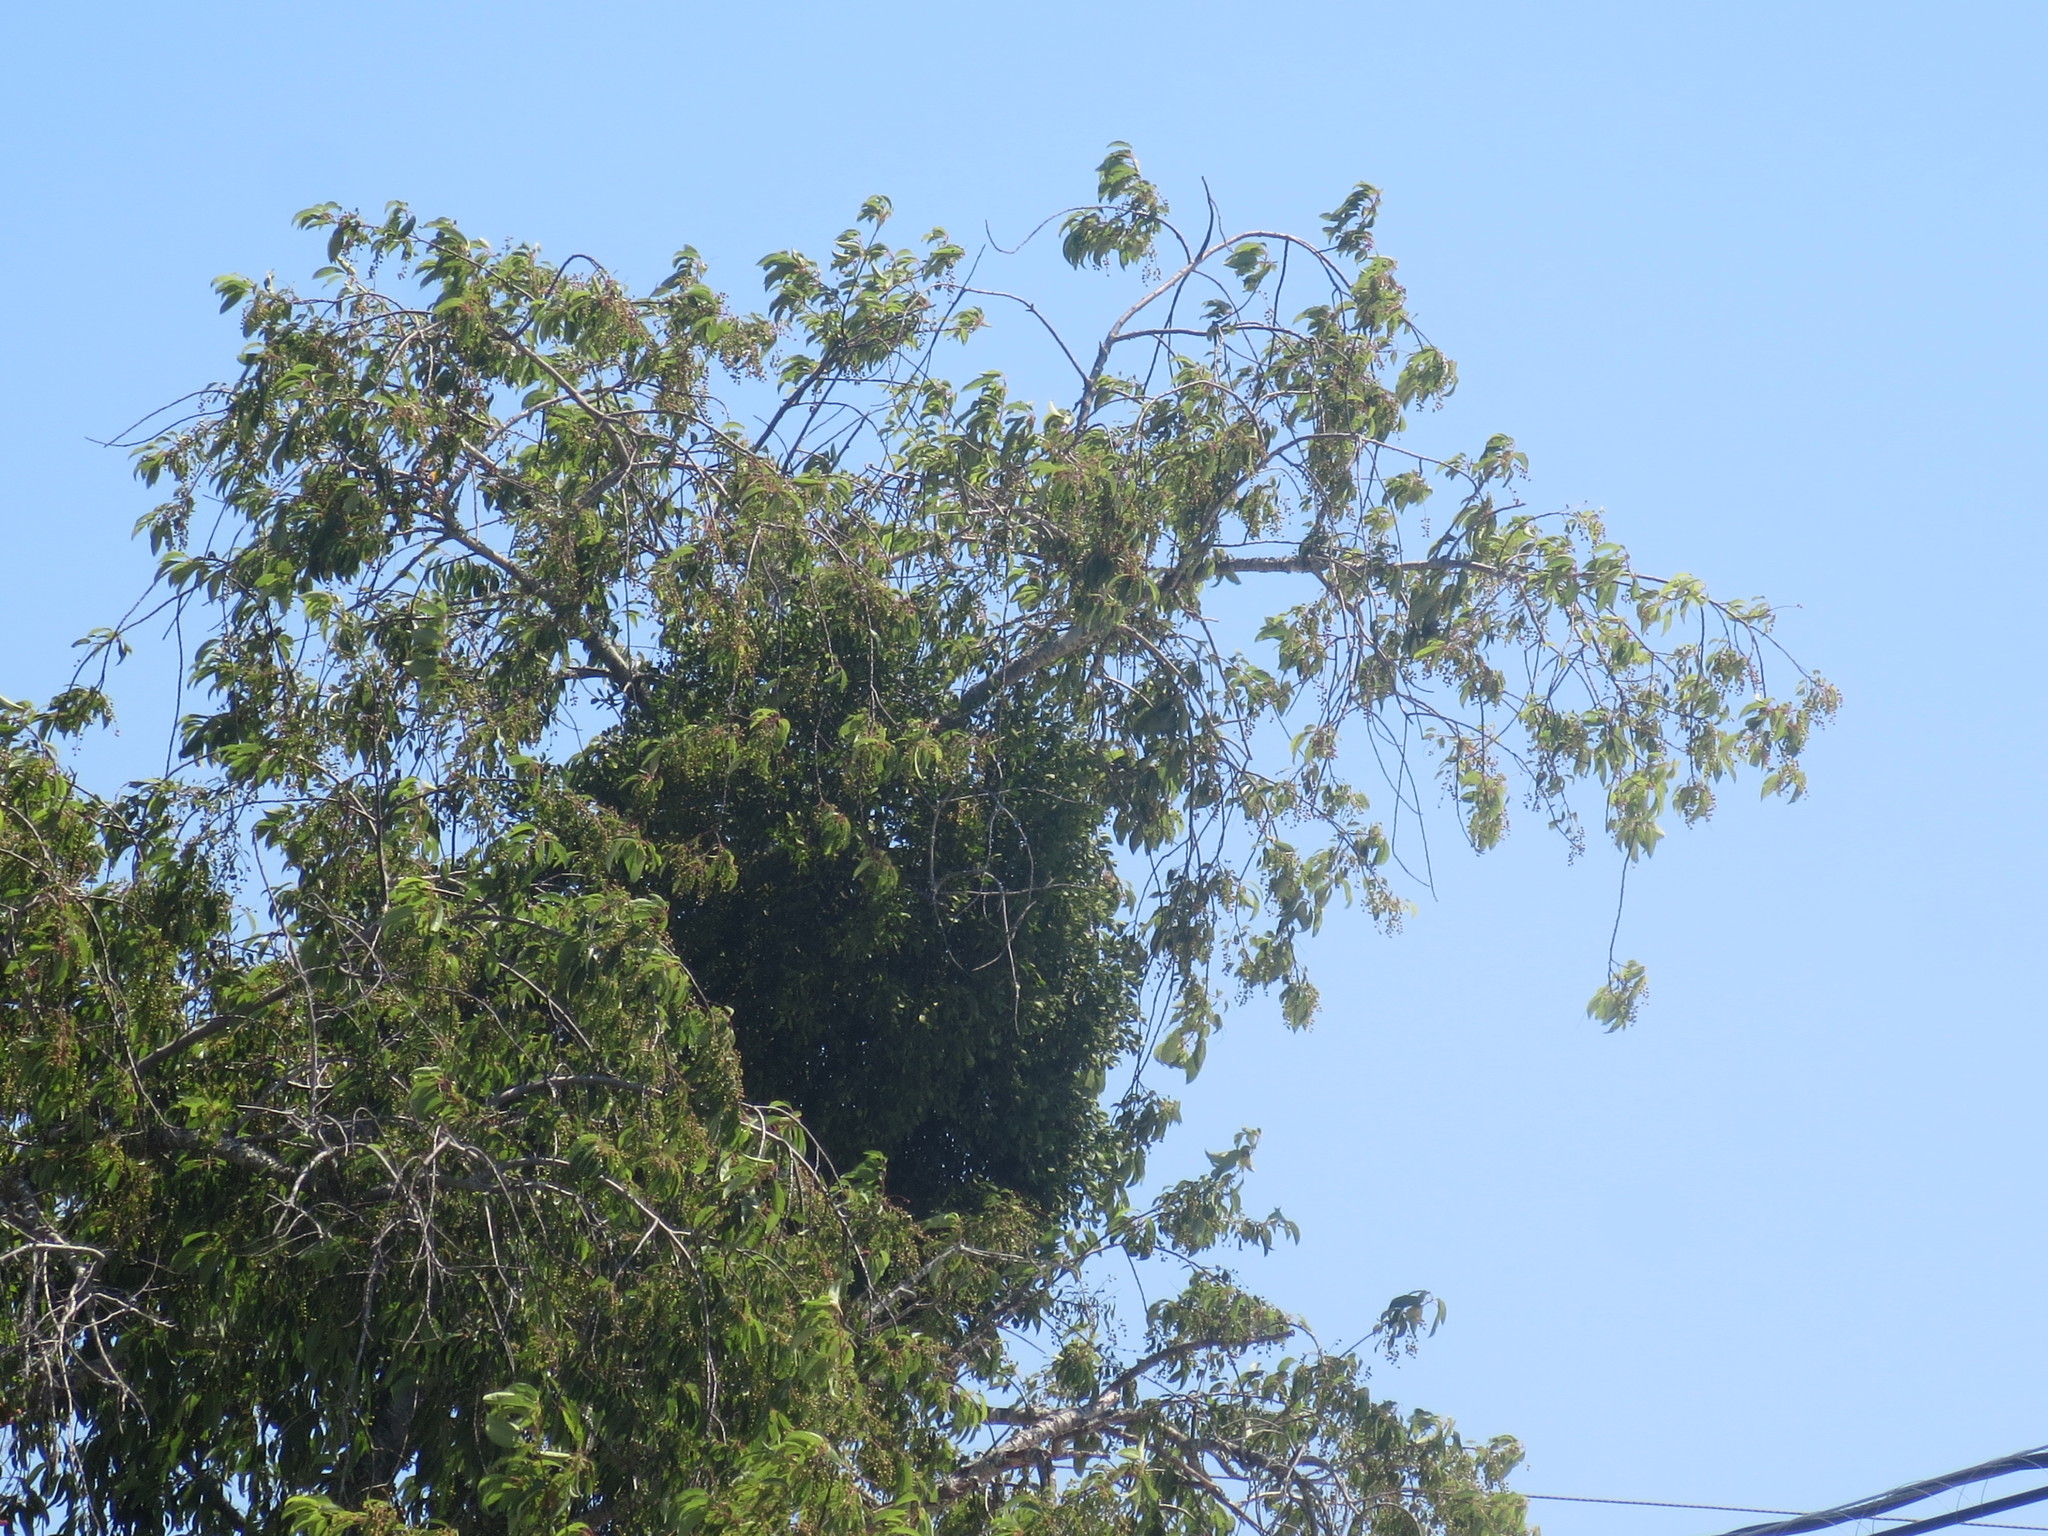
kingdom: Plantae
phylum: Tracheophyta
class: Magnoliopsida
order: Santalales
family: Viscaceae
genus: Phoradendron
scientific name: Phoradendron leucarpum
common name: Pacific mistletoe
